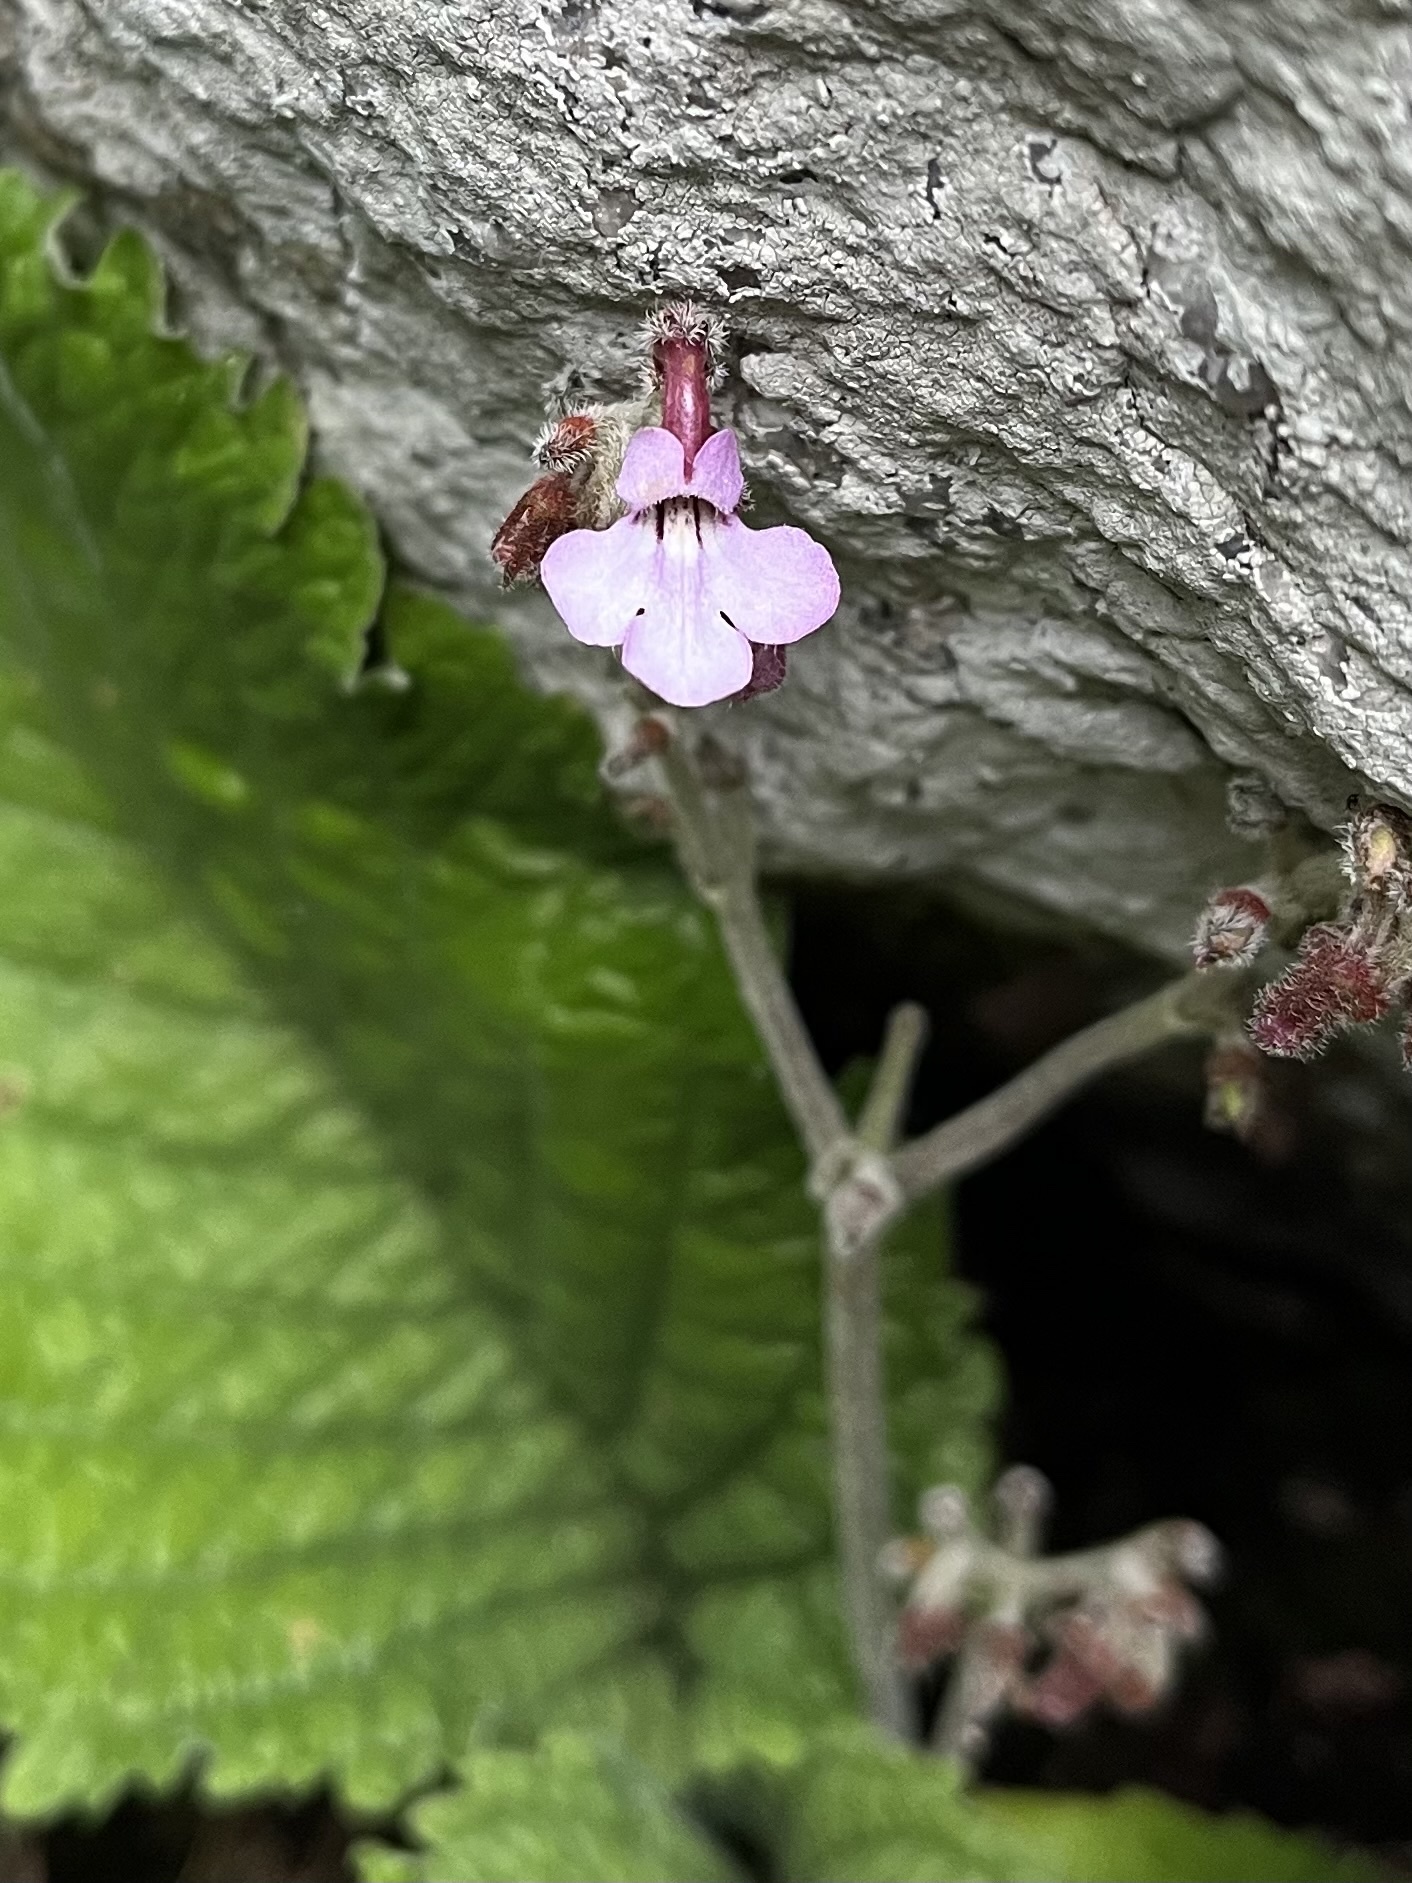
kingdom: Plantae
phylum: Tracheophyta
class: Magnoliopsida
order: Lamiales
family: Gesneriaceae
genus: Streptocarpus
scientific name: Streptocarpus pole-evansii
